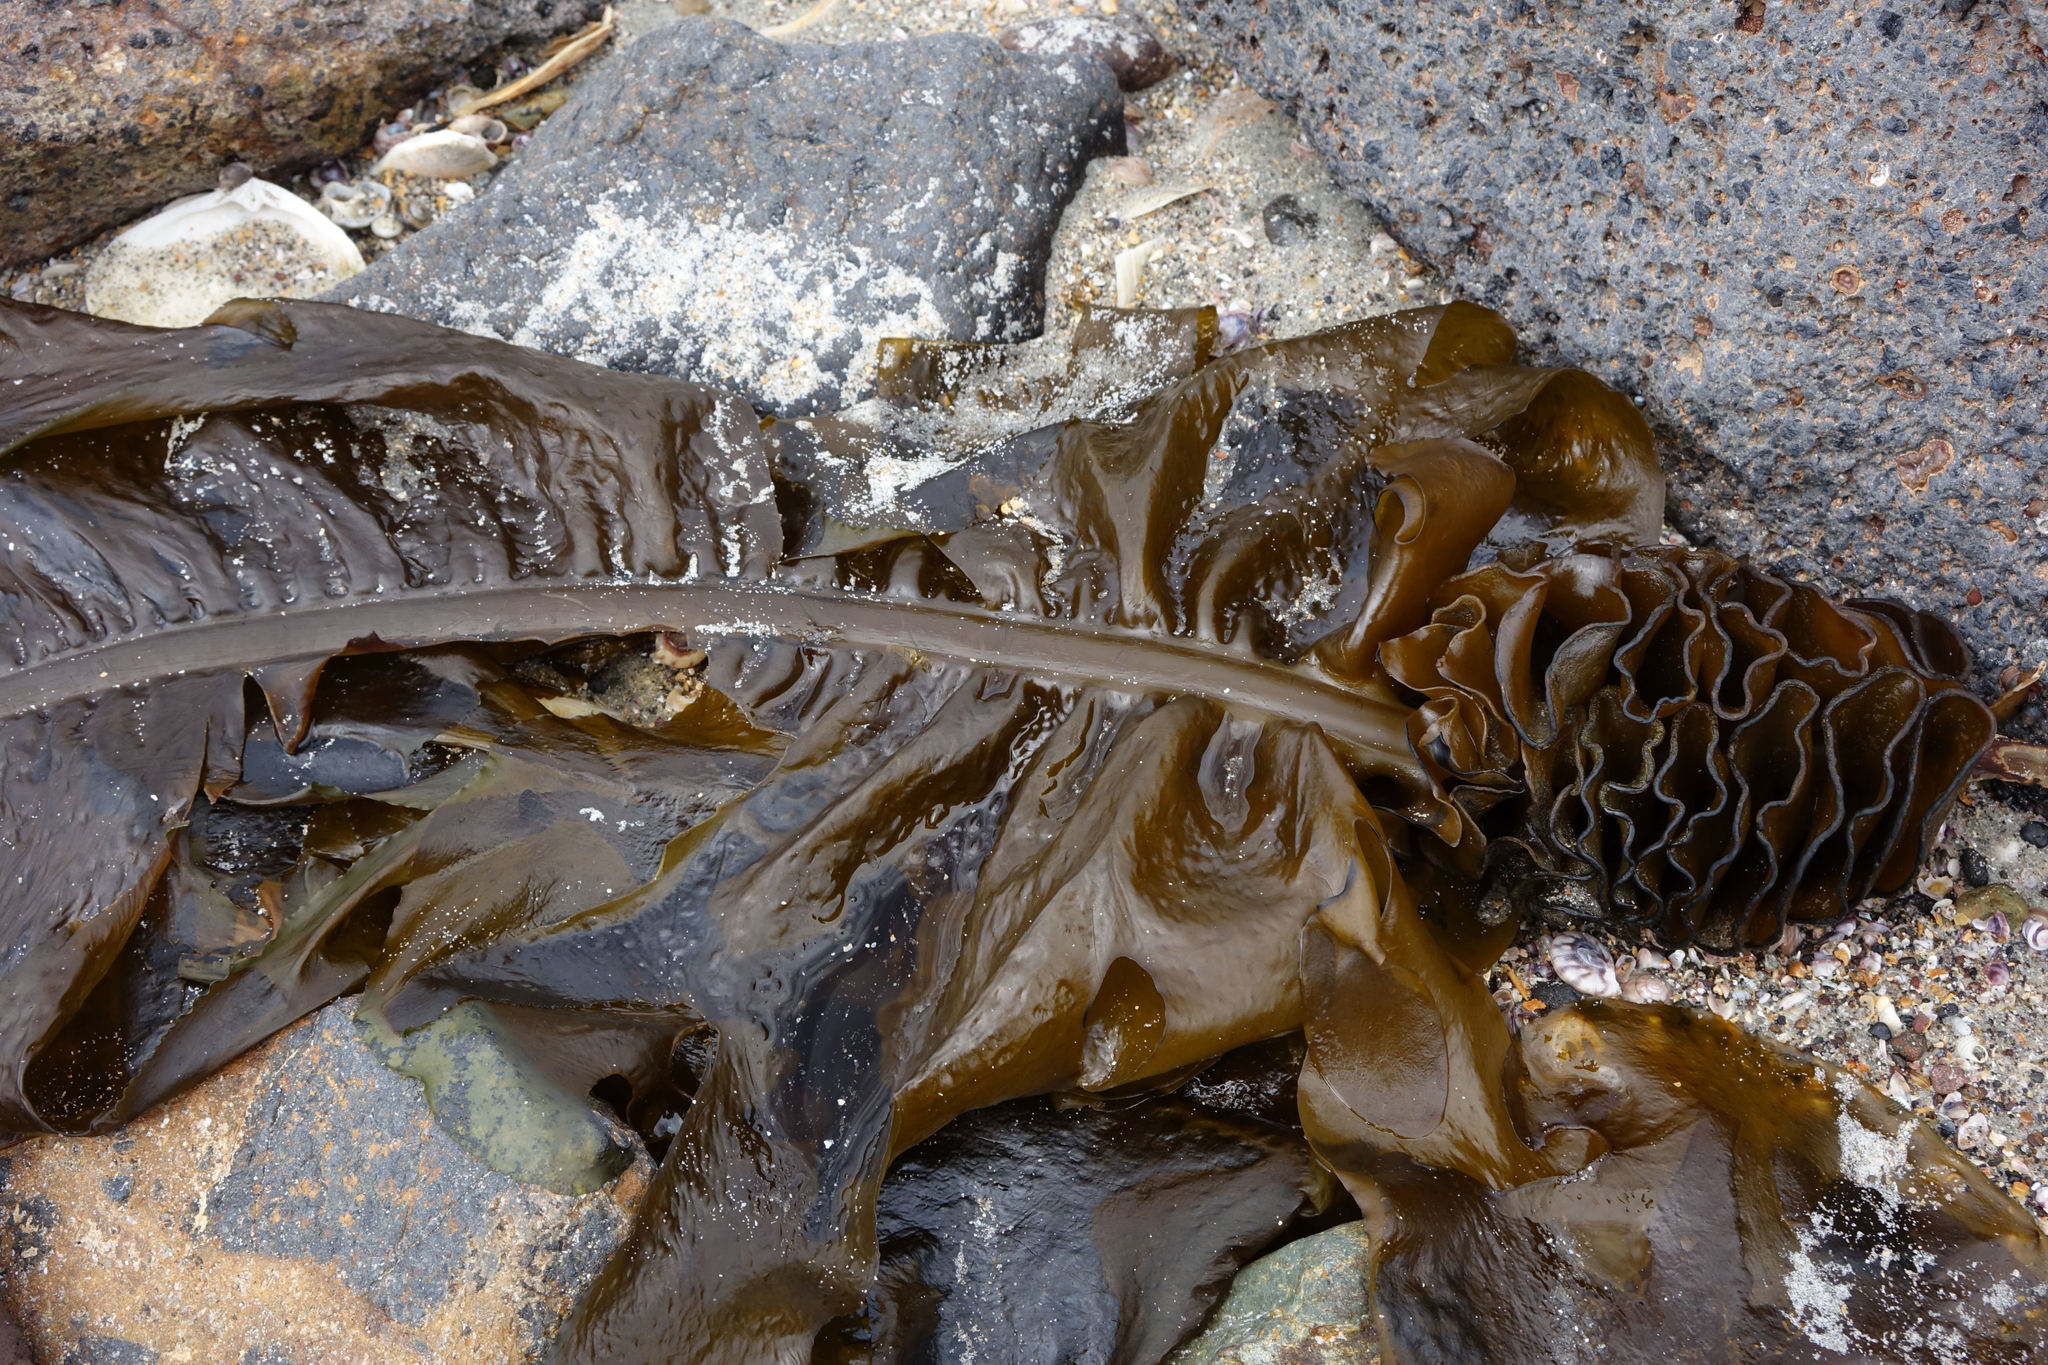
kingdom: Chromista
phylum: Ochrophyta
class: Phaeophyceae
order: Laminariales
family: Alariaceae
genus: Undaria
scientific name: Undaria pinnatifida
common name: Asian kelp
